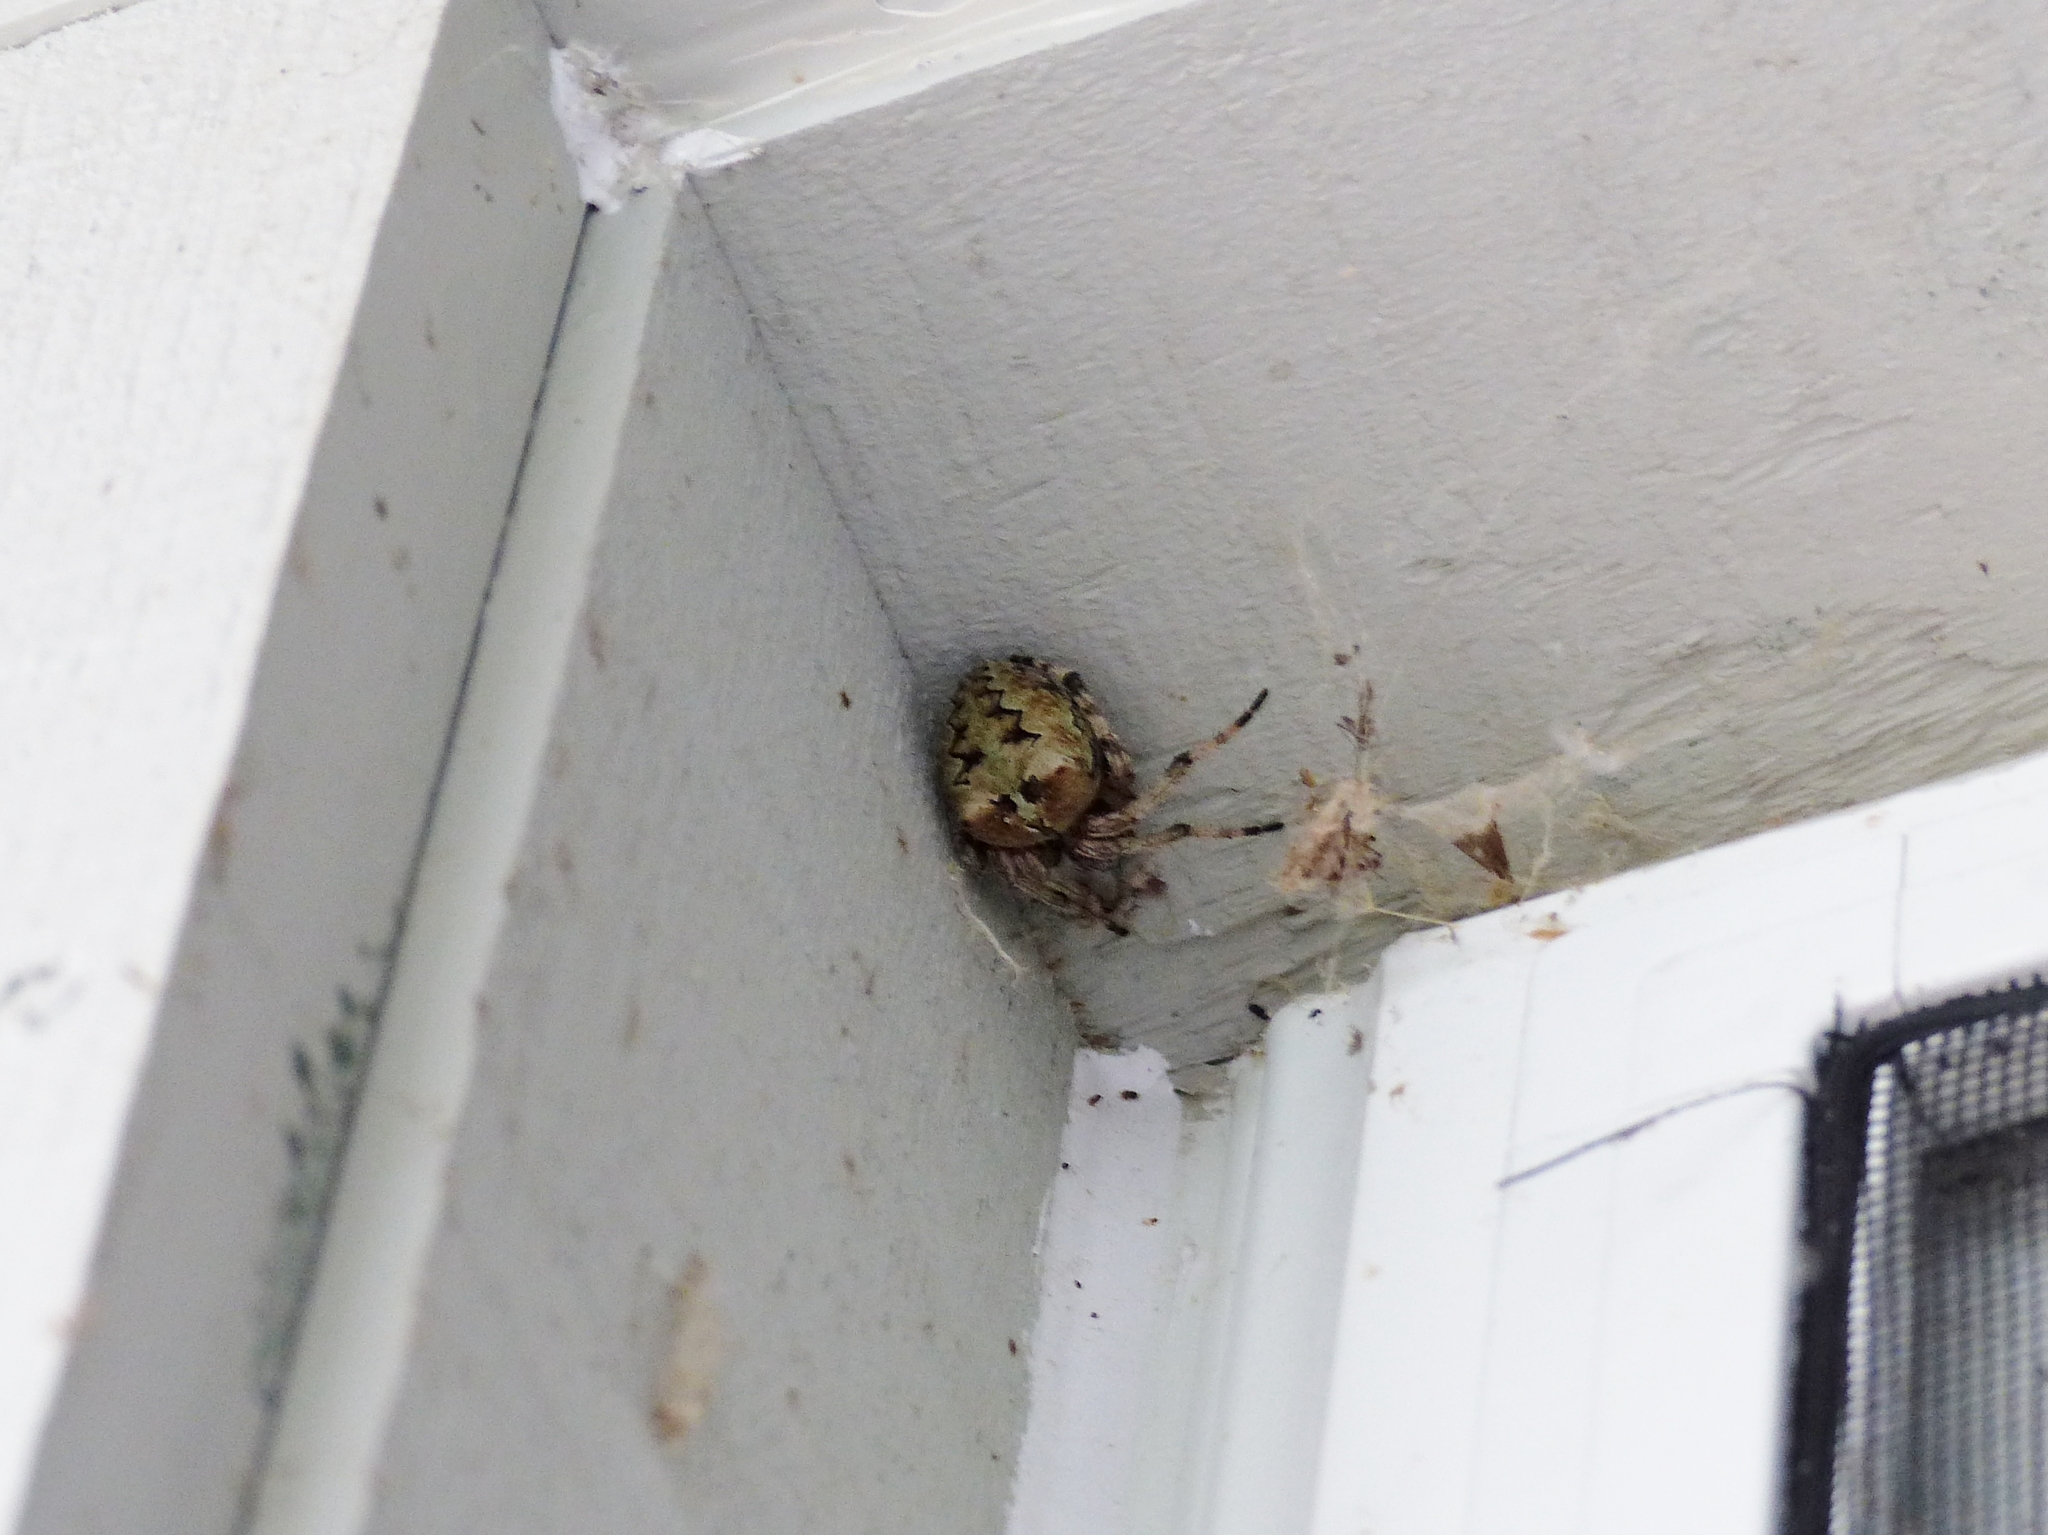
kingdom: Animalia
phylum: Arthropoda
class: Arachnida
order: Araneae
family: Araneidae
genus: Araneus
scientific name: Araneus bicentenarius
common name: Giant lichen orbweaver
